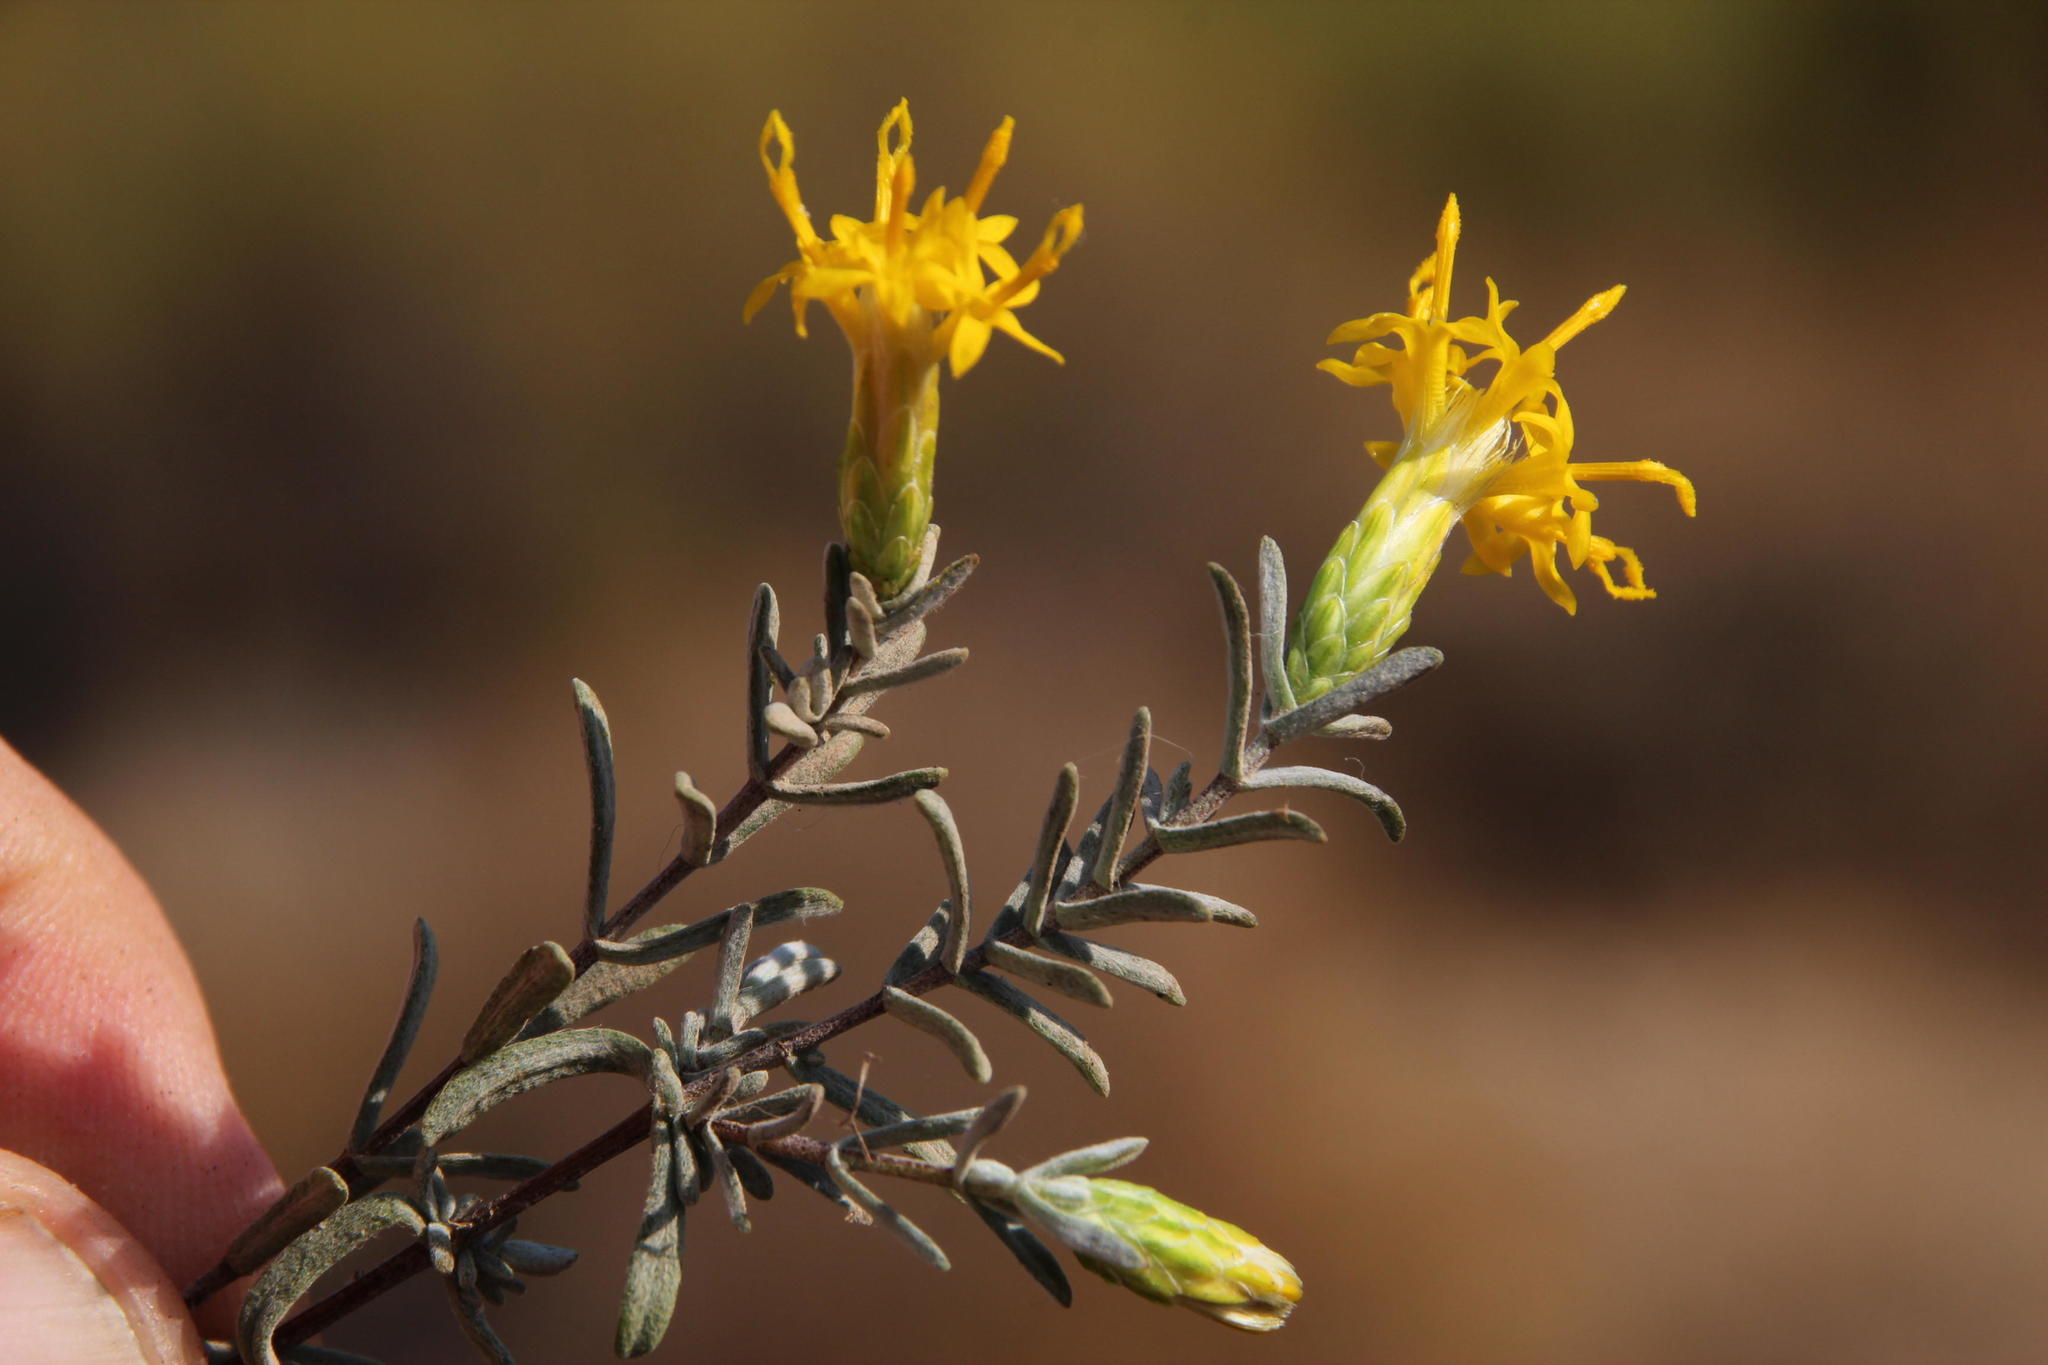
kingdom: Plantae
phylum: Tracheophyta
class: Magnoliopsida
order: Asterales
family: Asteraceae
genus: Pteronia
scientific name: Pteronia incana
